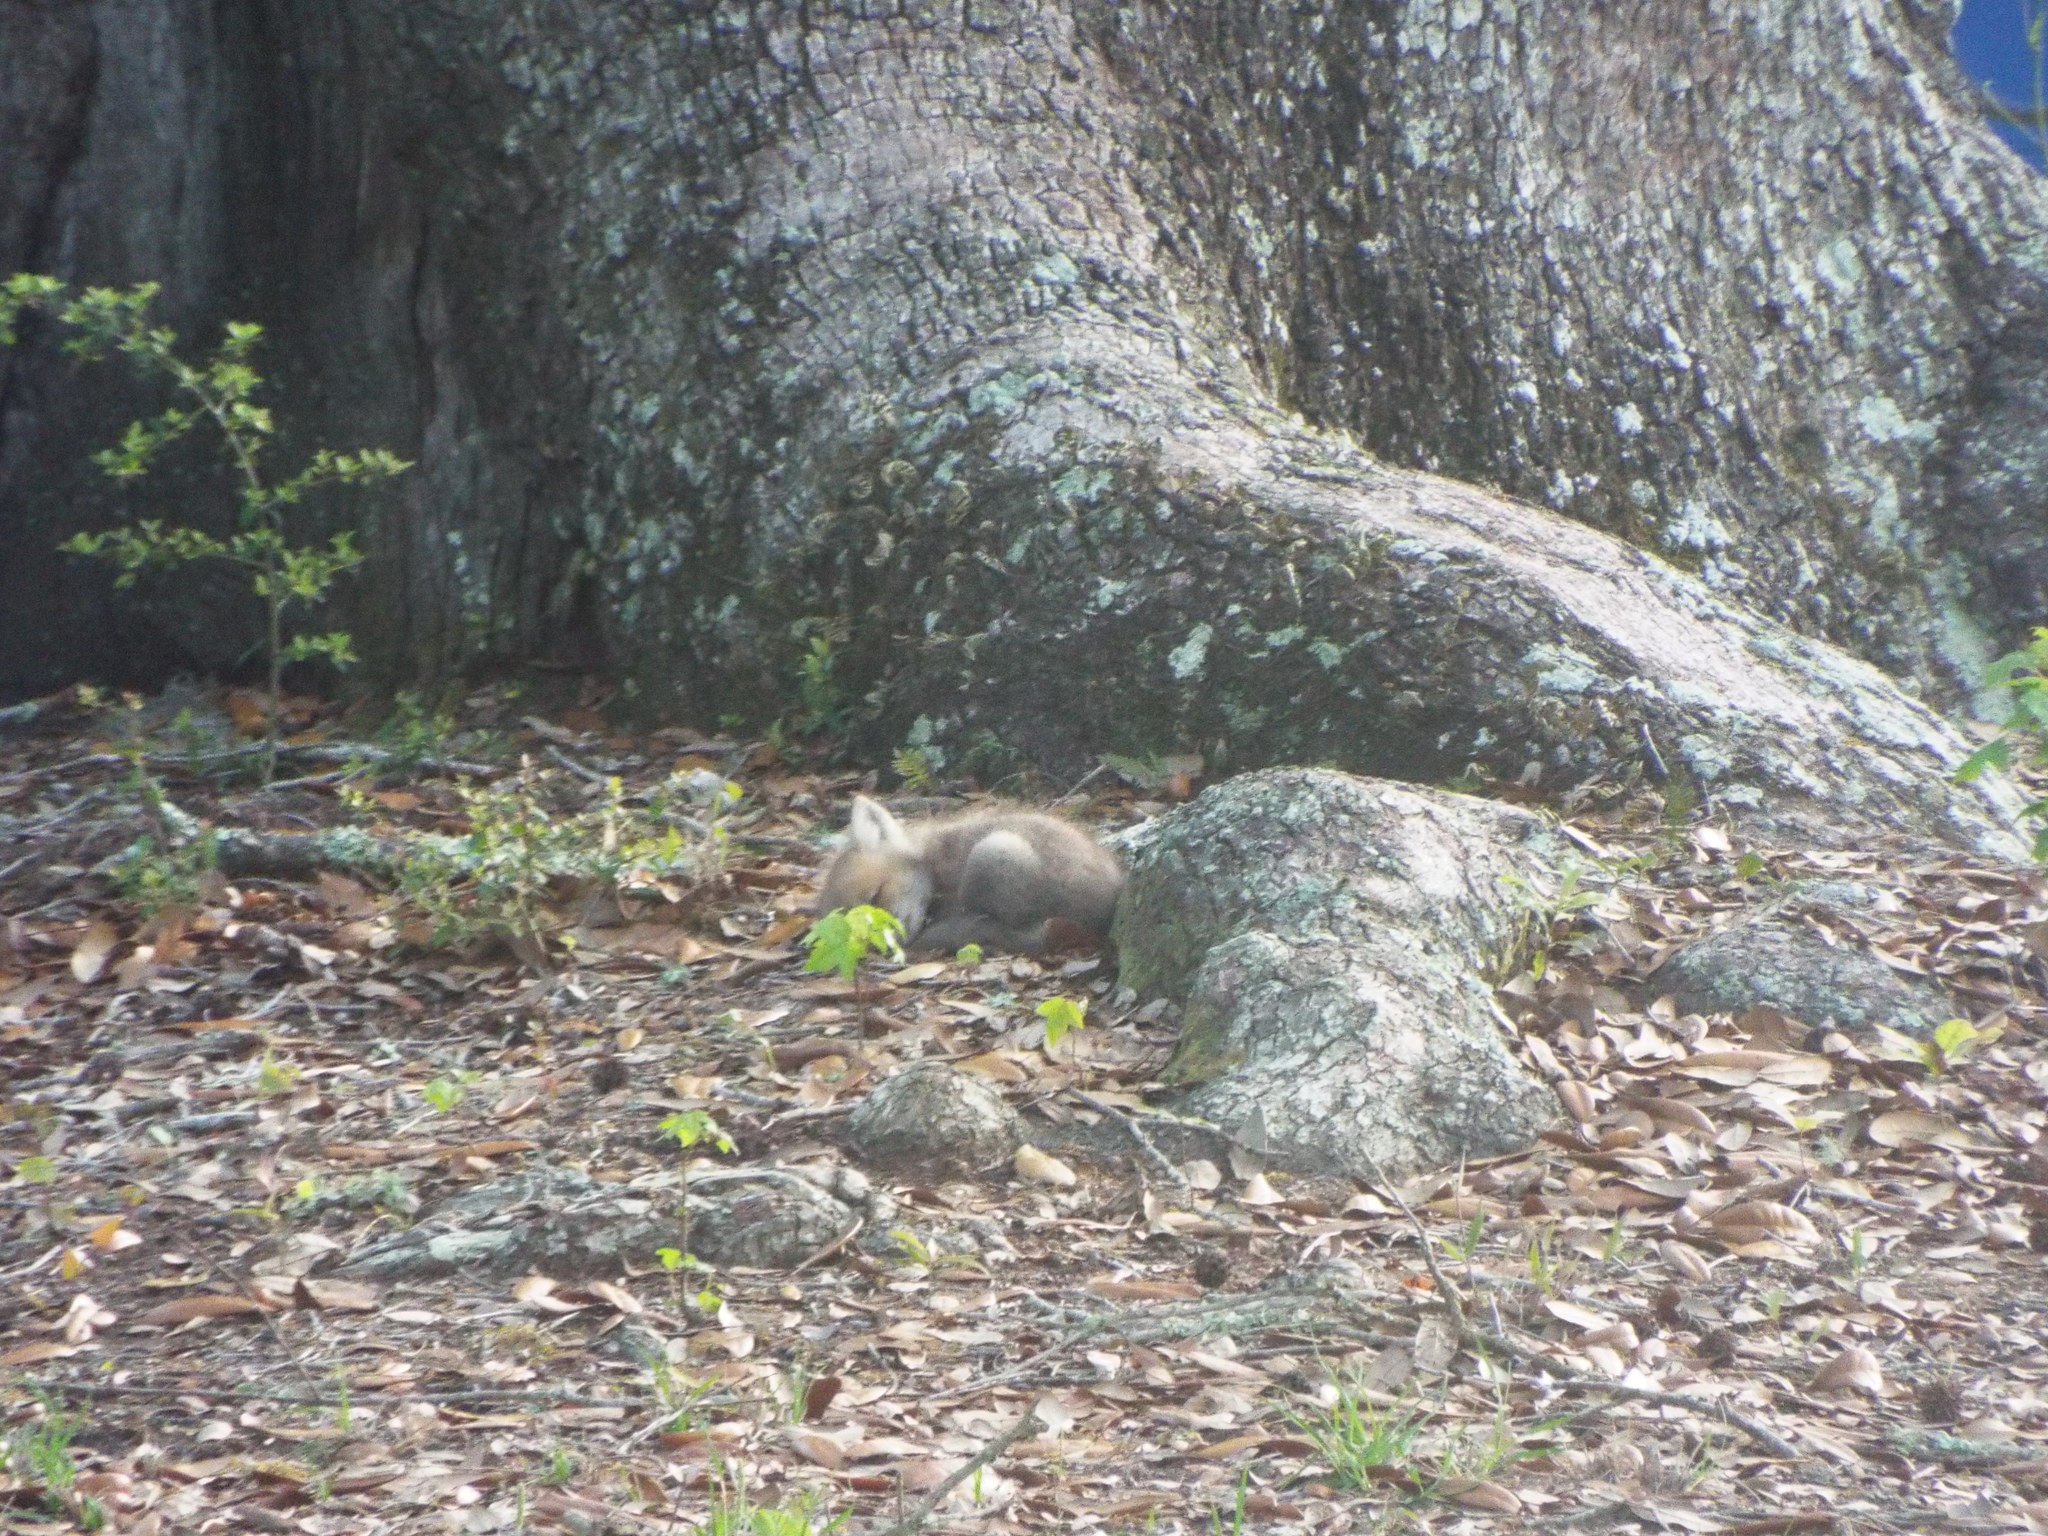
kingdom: Animalia
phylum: Chordata
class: Mammalia
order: Carnivora
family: Canidae
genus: Vulpes
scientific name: Vulpes vulpes
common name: Red fox
